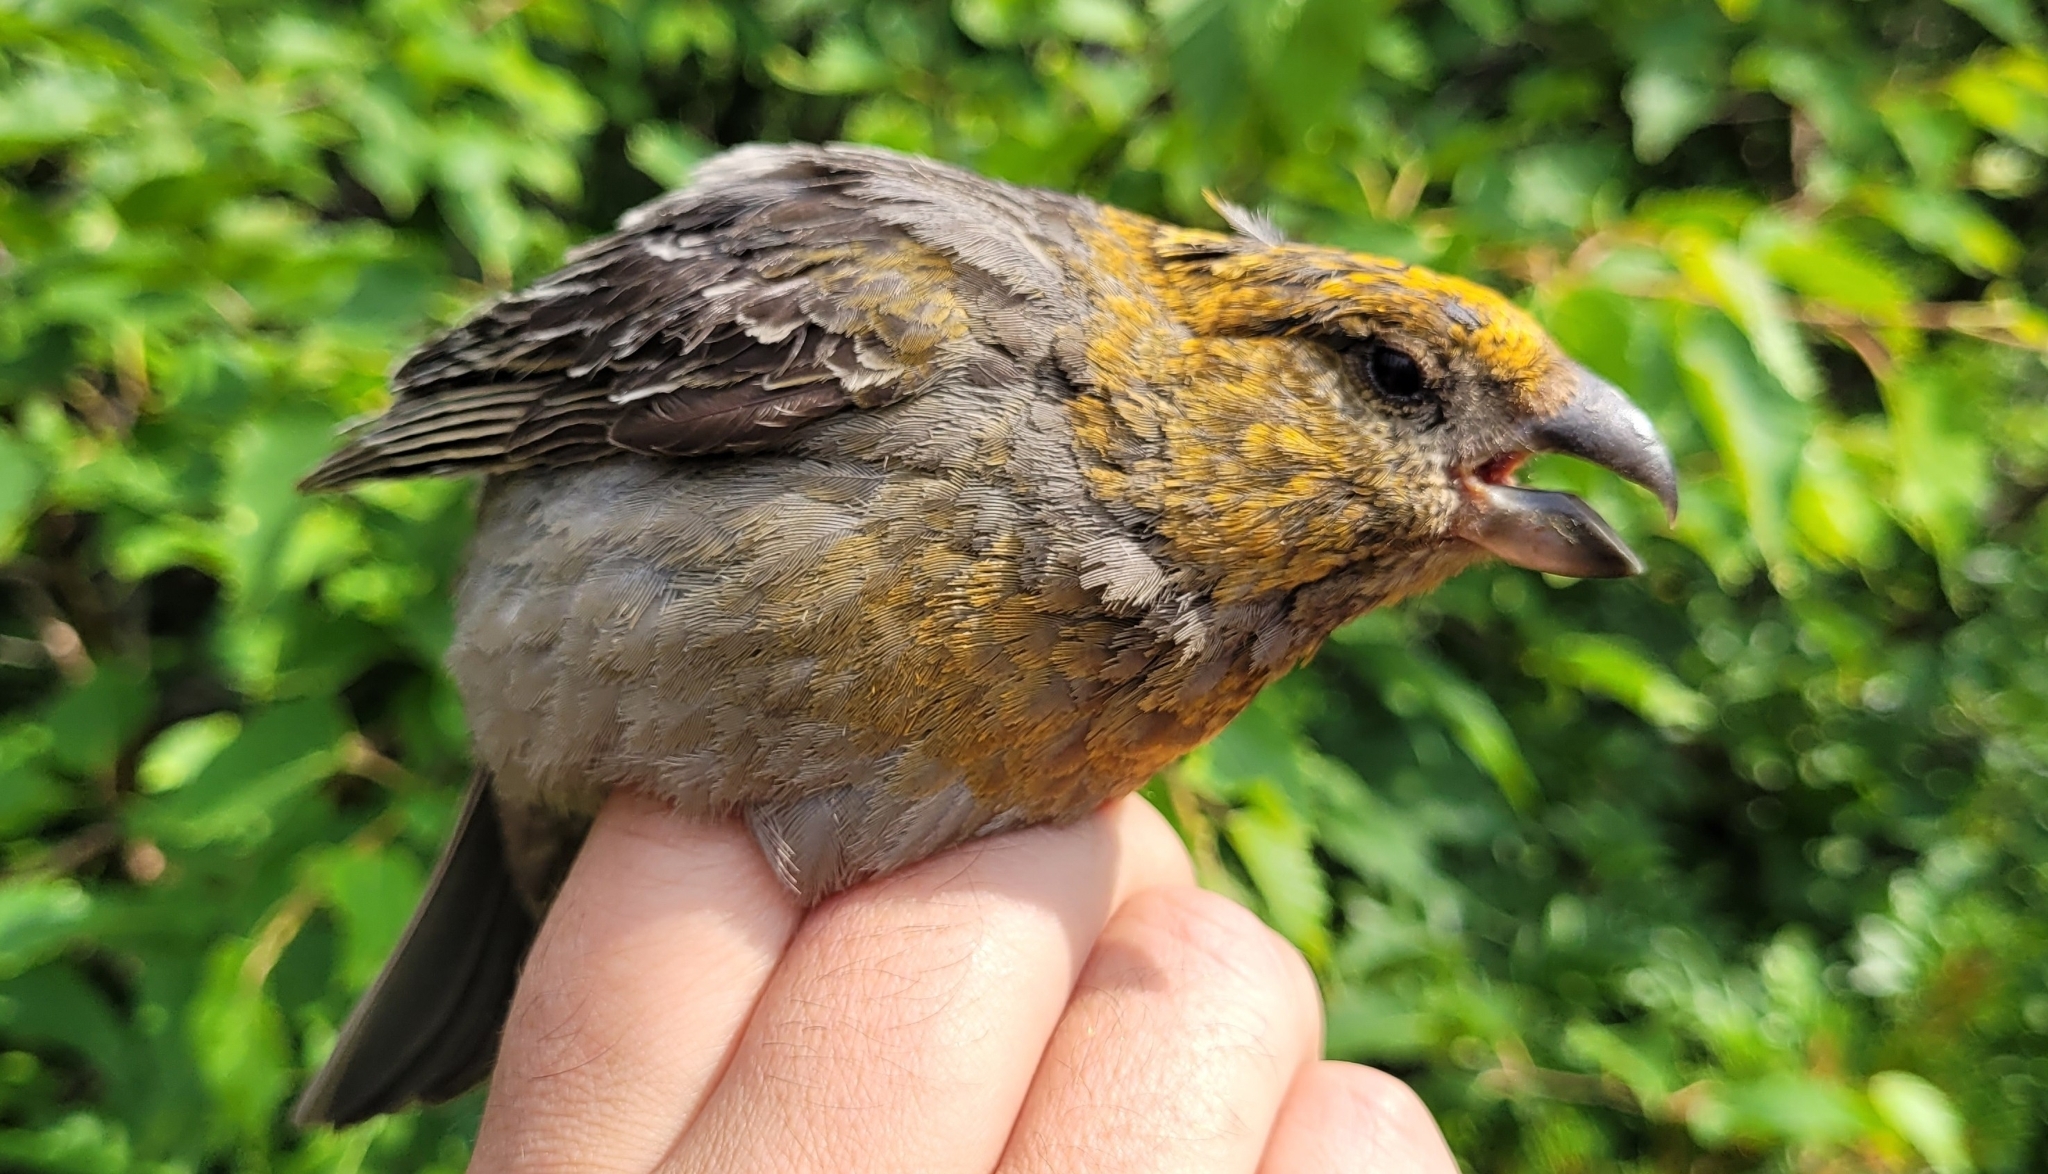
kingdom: Animalia
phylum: Chordata
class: Aves
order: Passeriformes
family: Fringillidae
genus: Pinicola
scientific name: Pinicola enucleator
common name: Pine grosbeak
